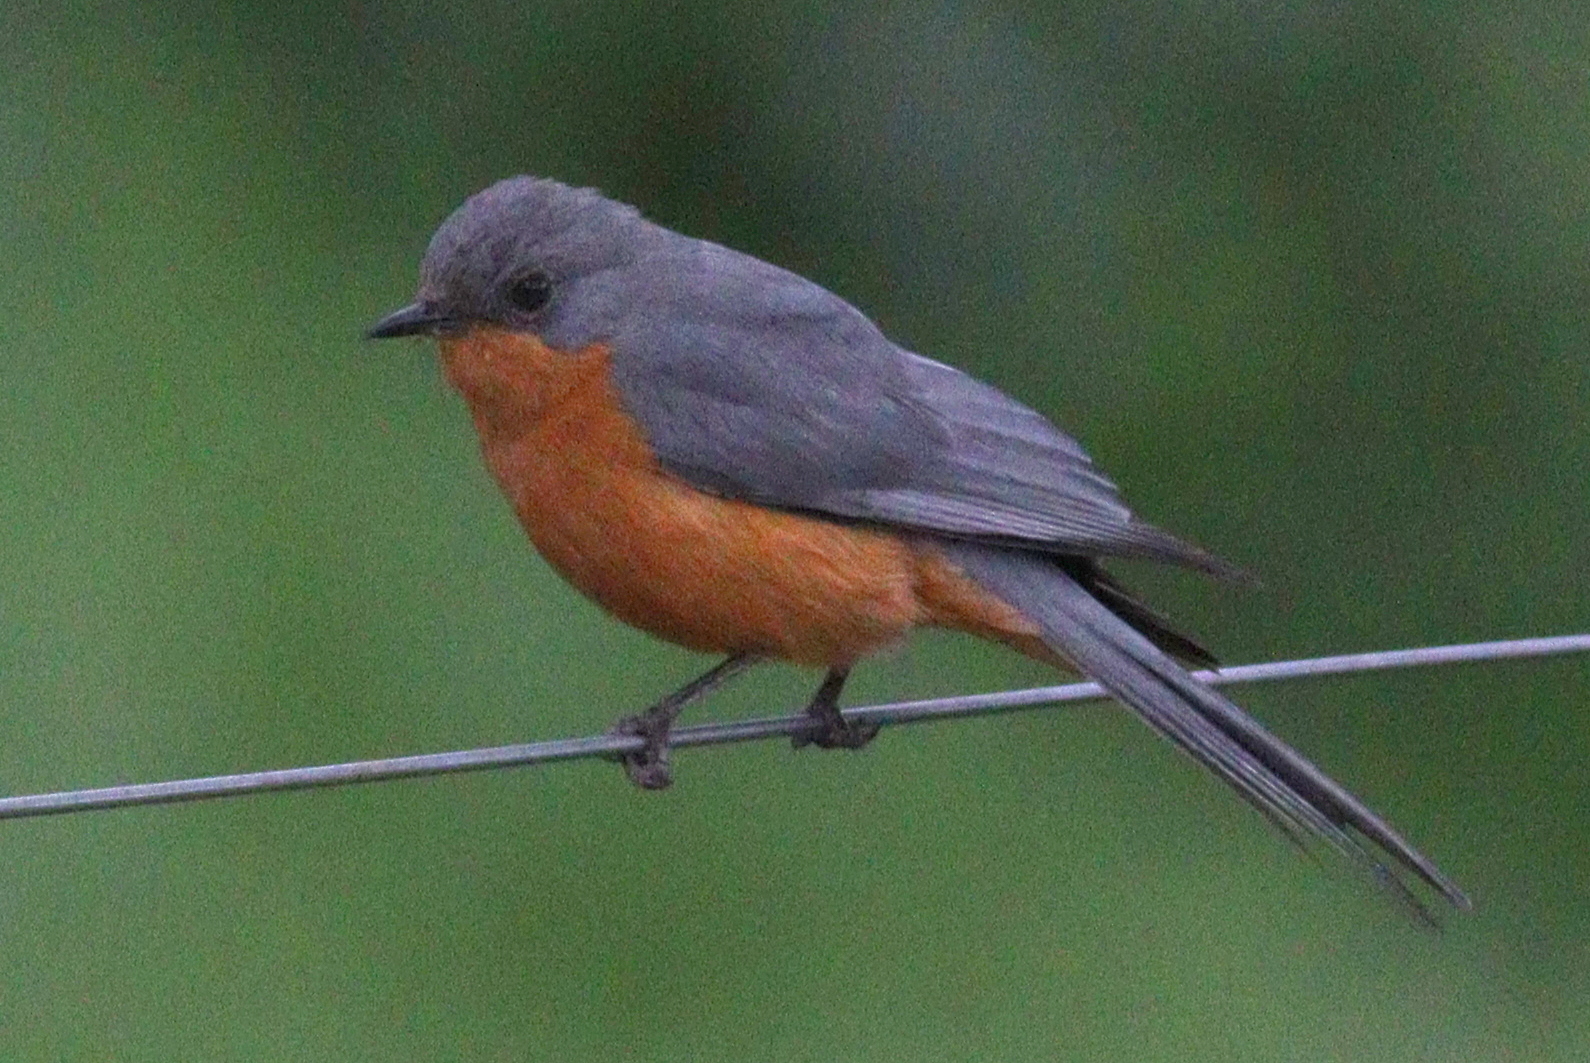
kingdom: Animalia
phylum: Chordata
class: Aves
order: Passeriformes
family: Muscicapidae
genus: Empidornis
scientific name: Empidornis semipartitus
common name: Silverbird
